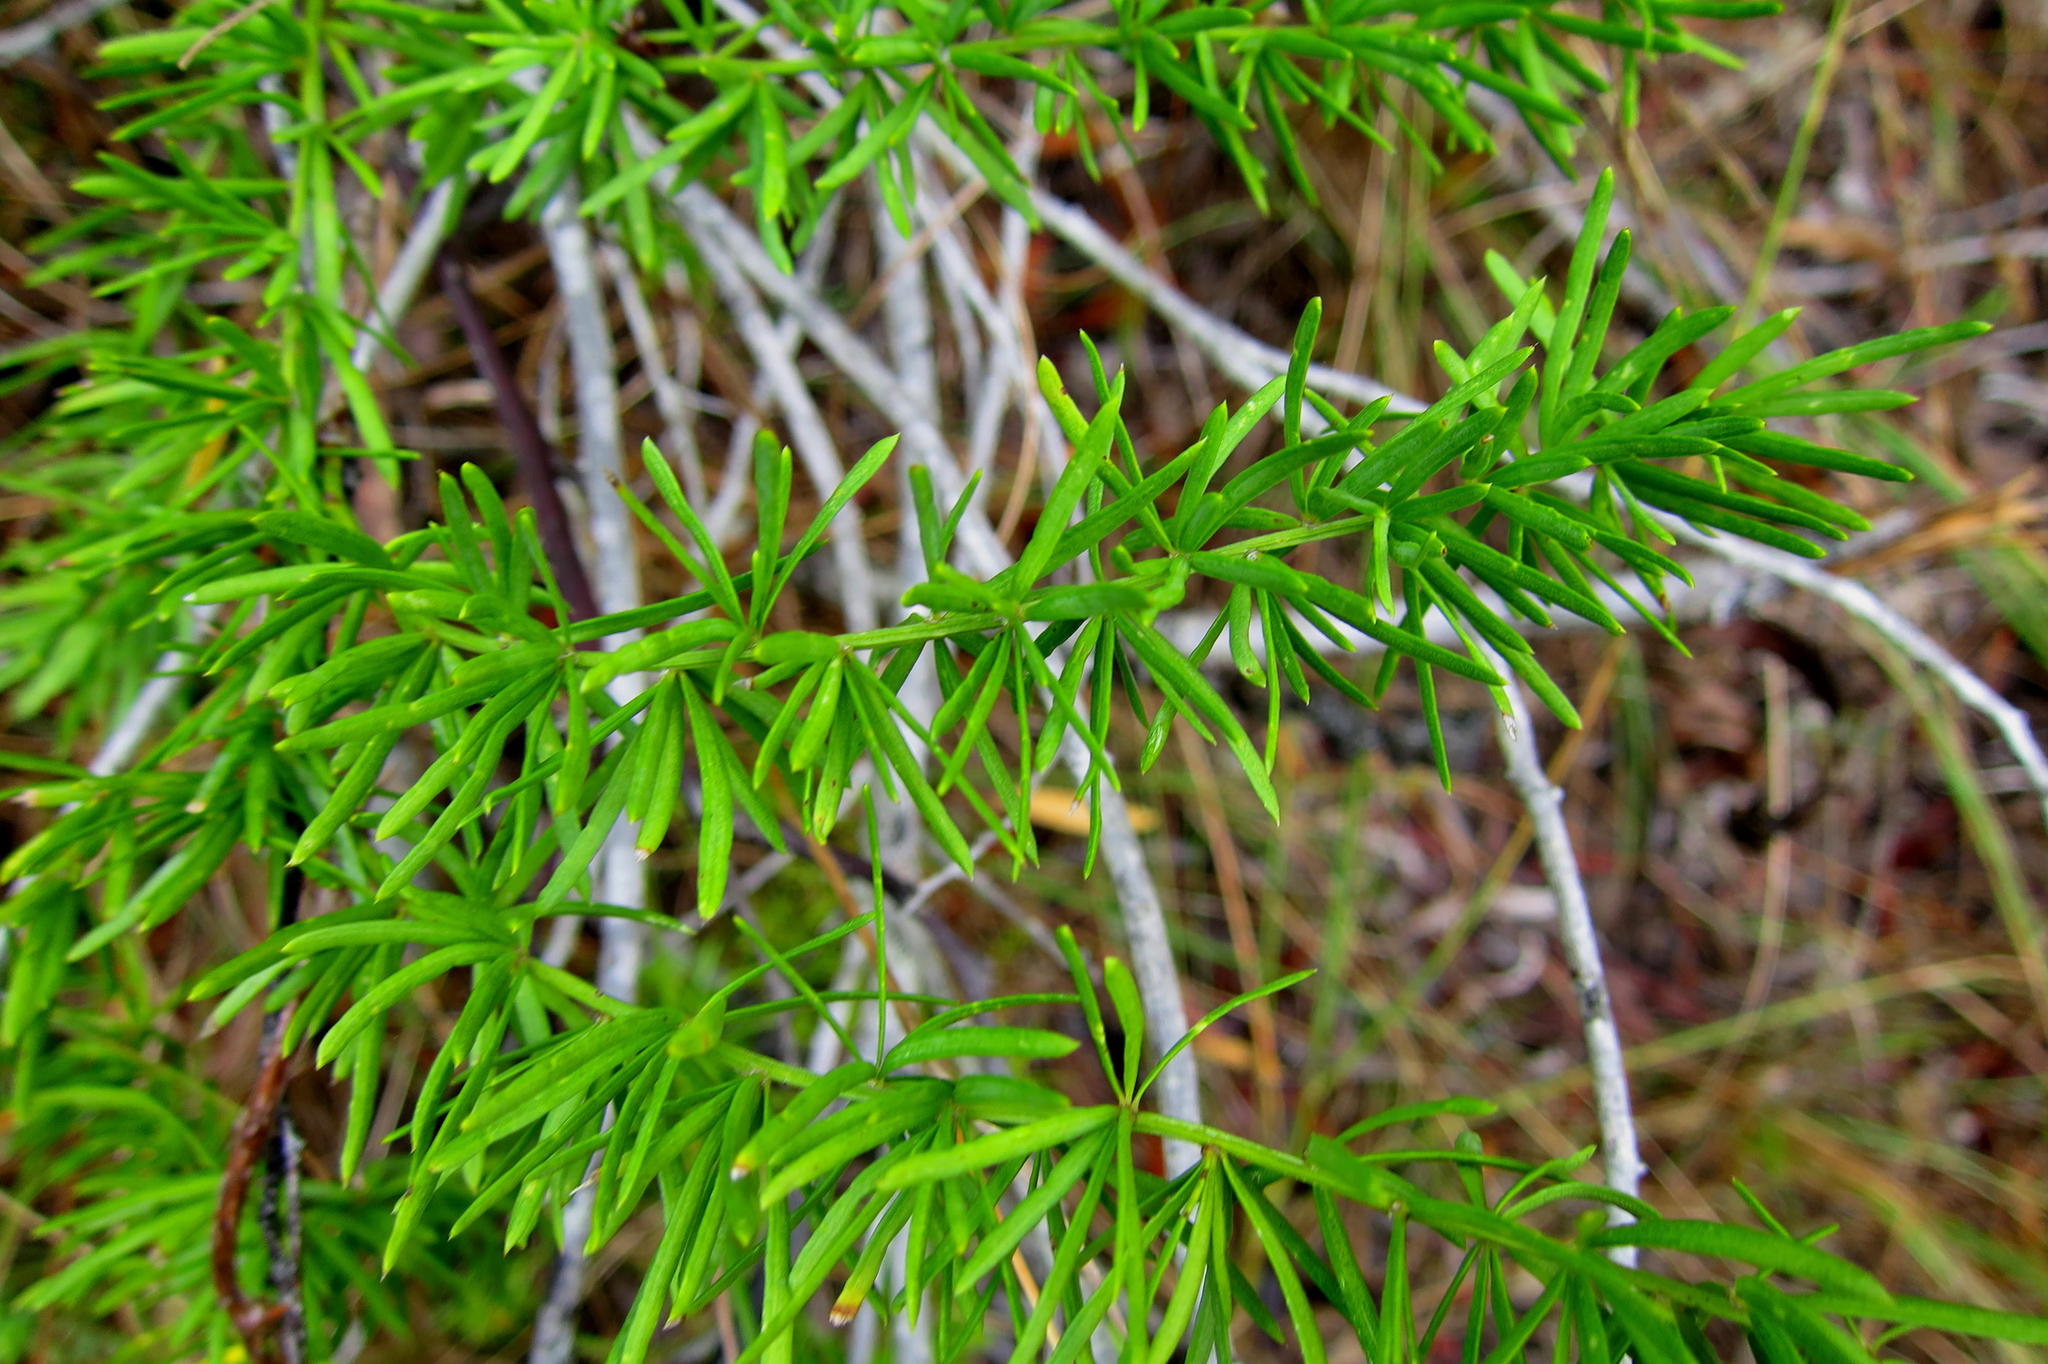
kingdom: Plantae
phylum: Tracheophyta
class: Liliopsida
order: Asparagales
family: Asparagaceae
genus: Asparagus
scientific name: Asparagus densiflorus
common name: Asparagus fern
